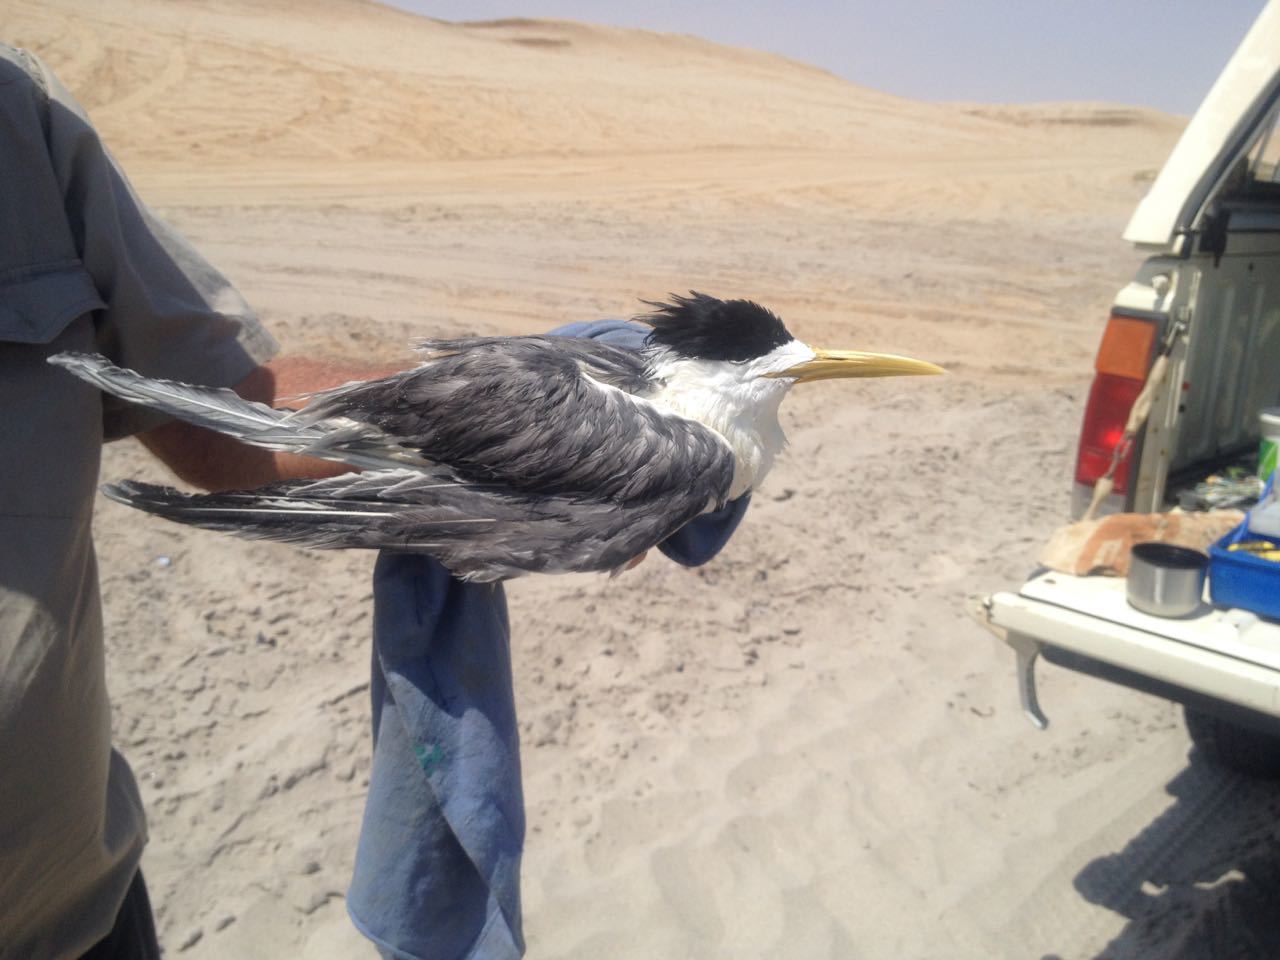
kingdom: Animalia
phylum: Chordata
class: Aves
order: Charadriiformes
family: Laridae
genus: Thalasseus
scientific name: Thalasseus bergii
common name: Greater crested tern
